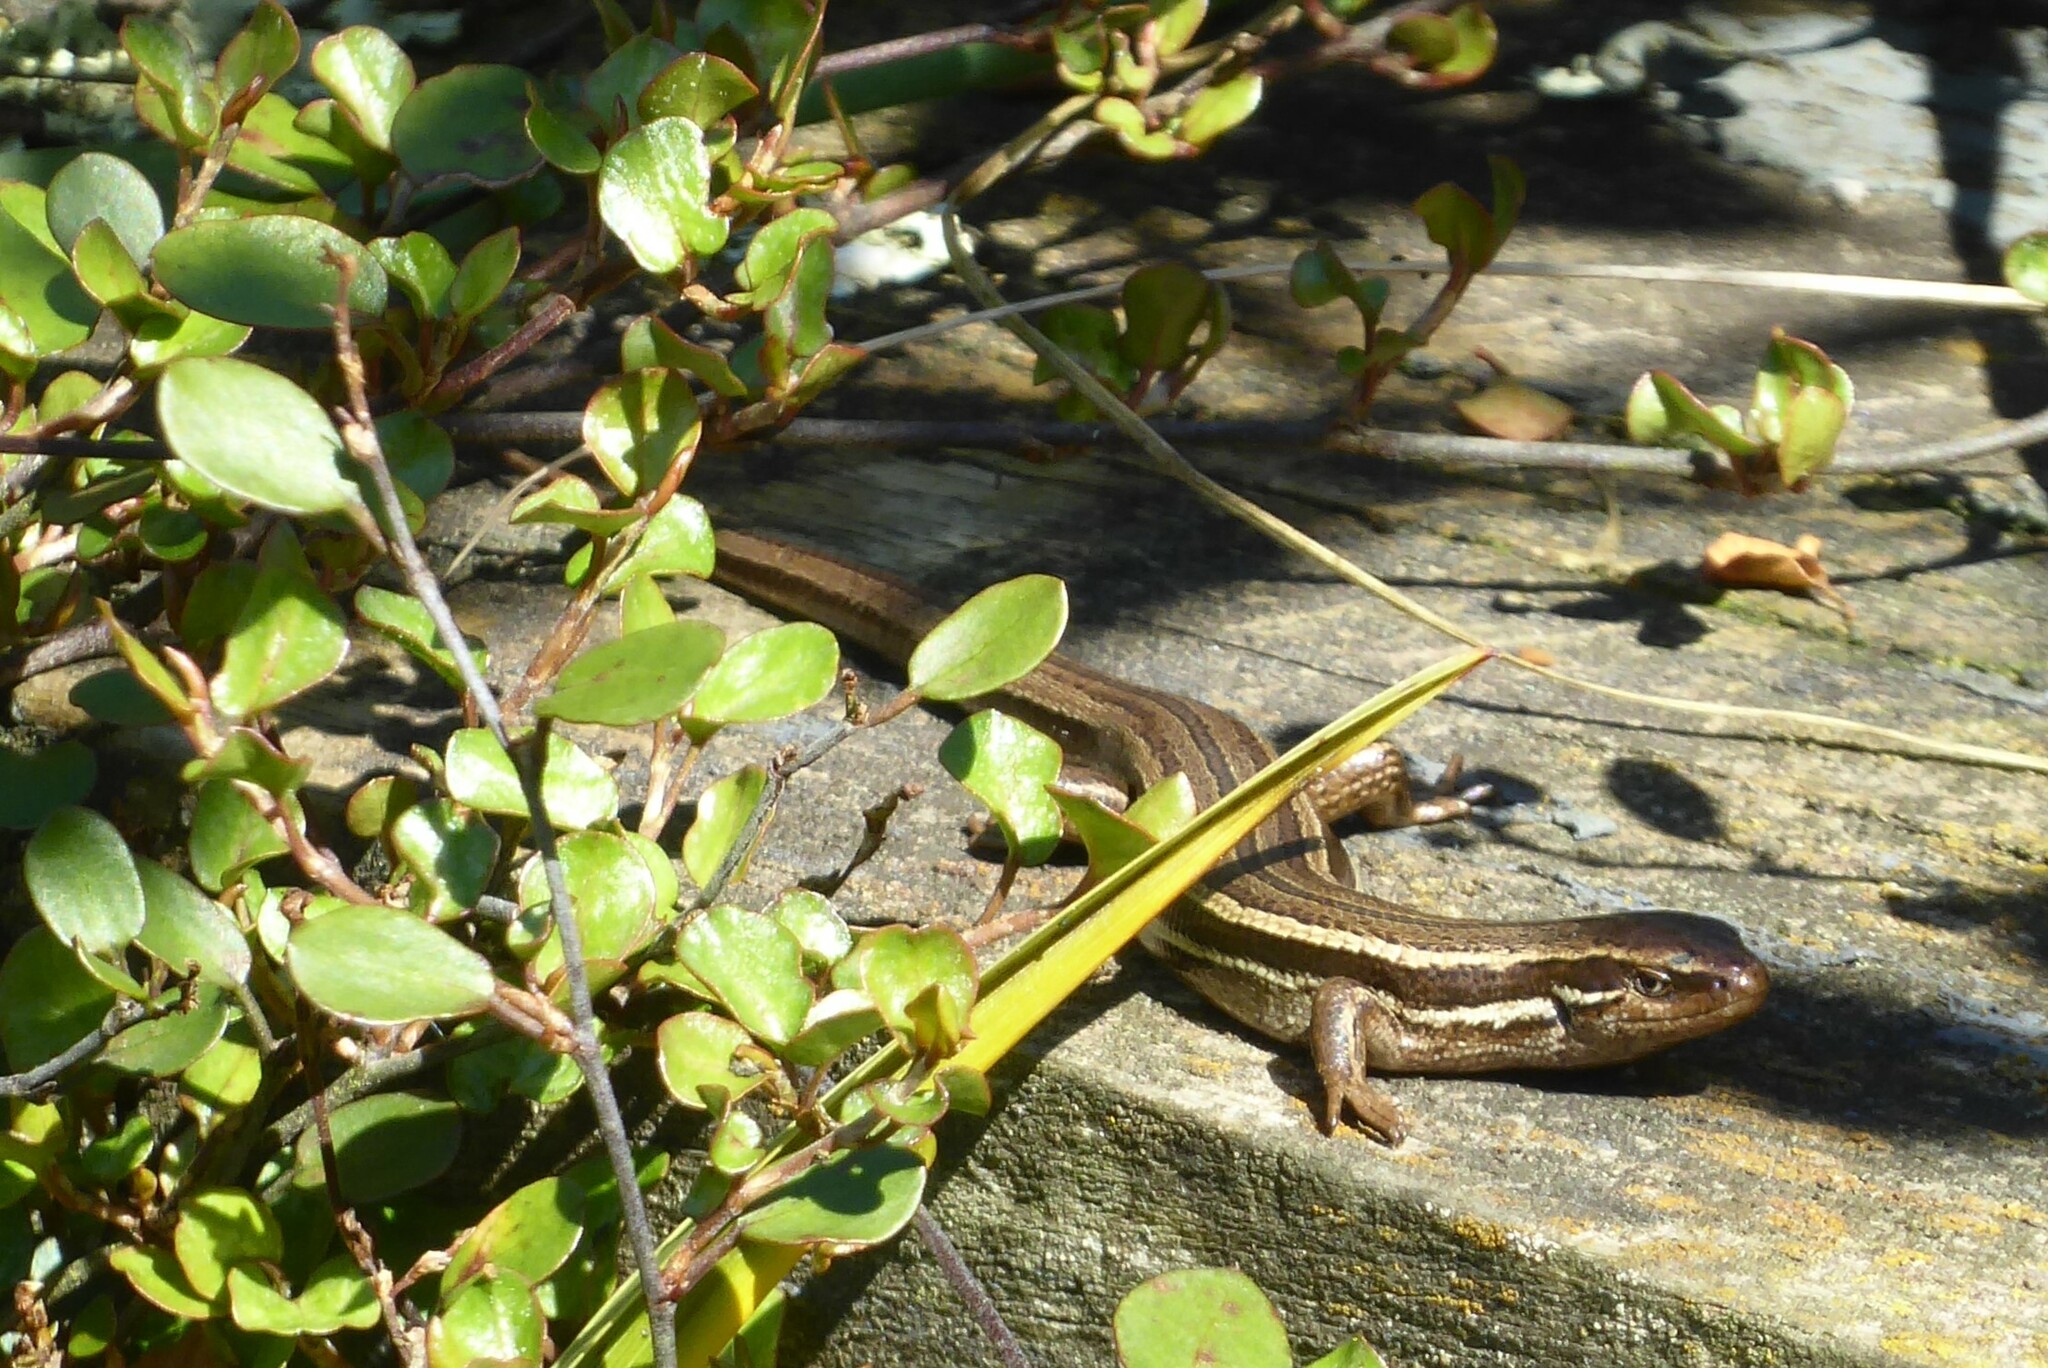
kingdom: Animalia
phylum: Chordata
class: Squamata
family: Scincidae
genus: Oligosoma
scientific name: Oligosoma polychroma
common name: Common new zealand skink
